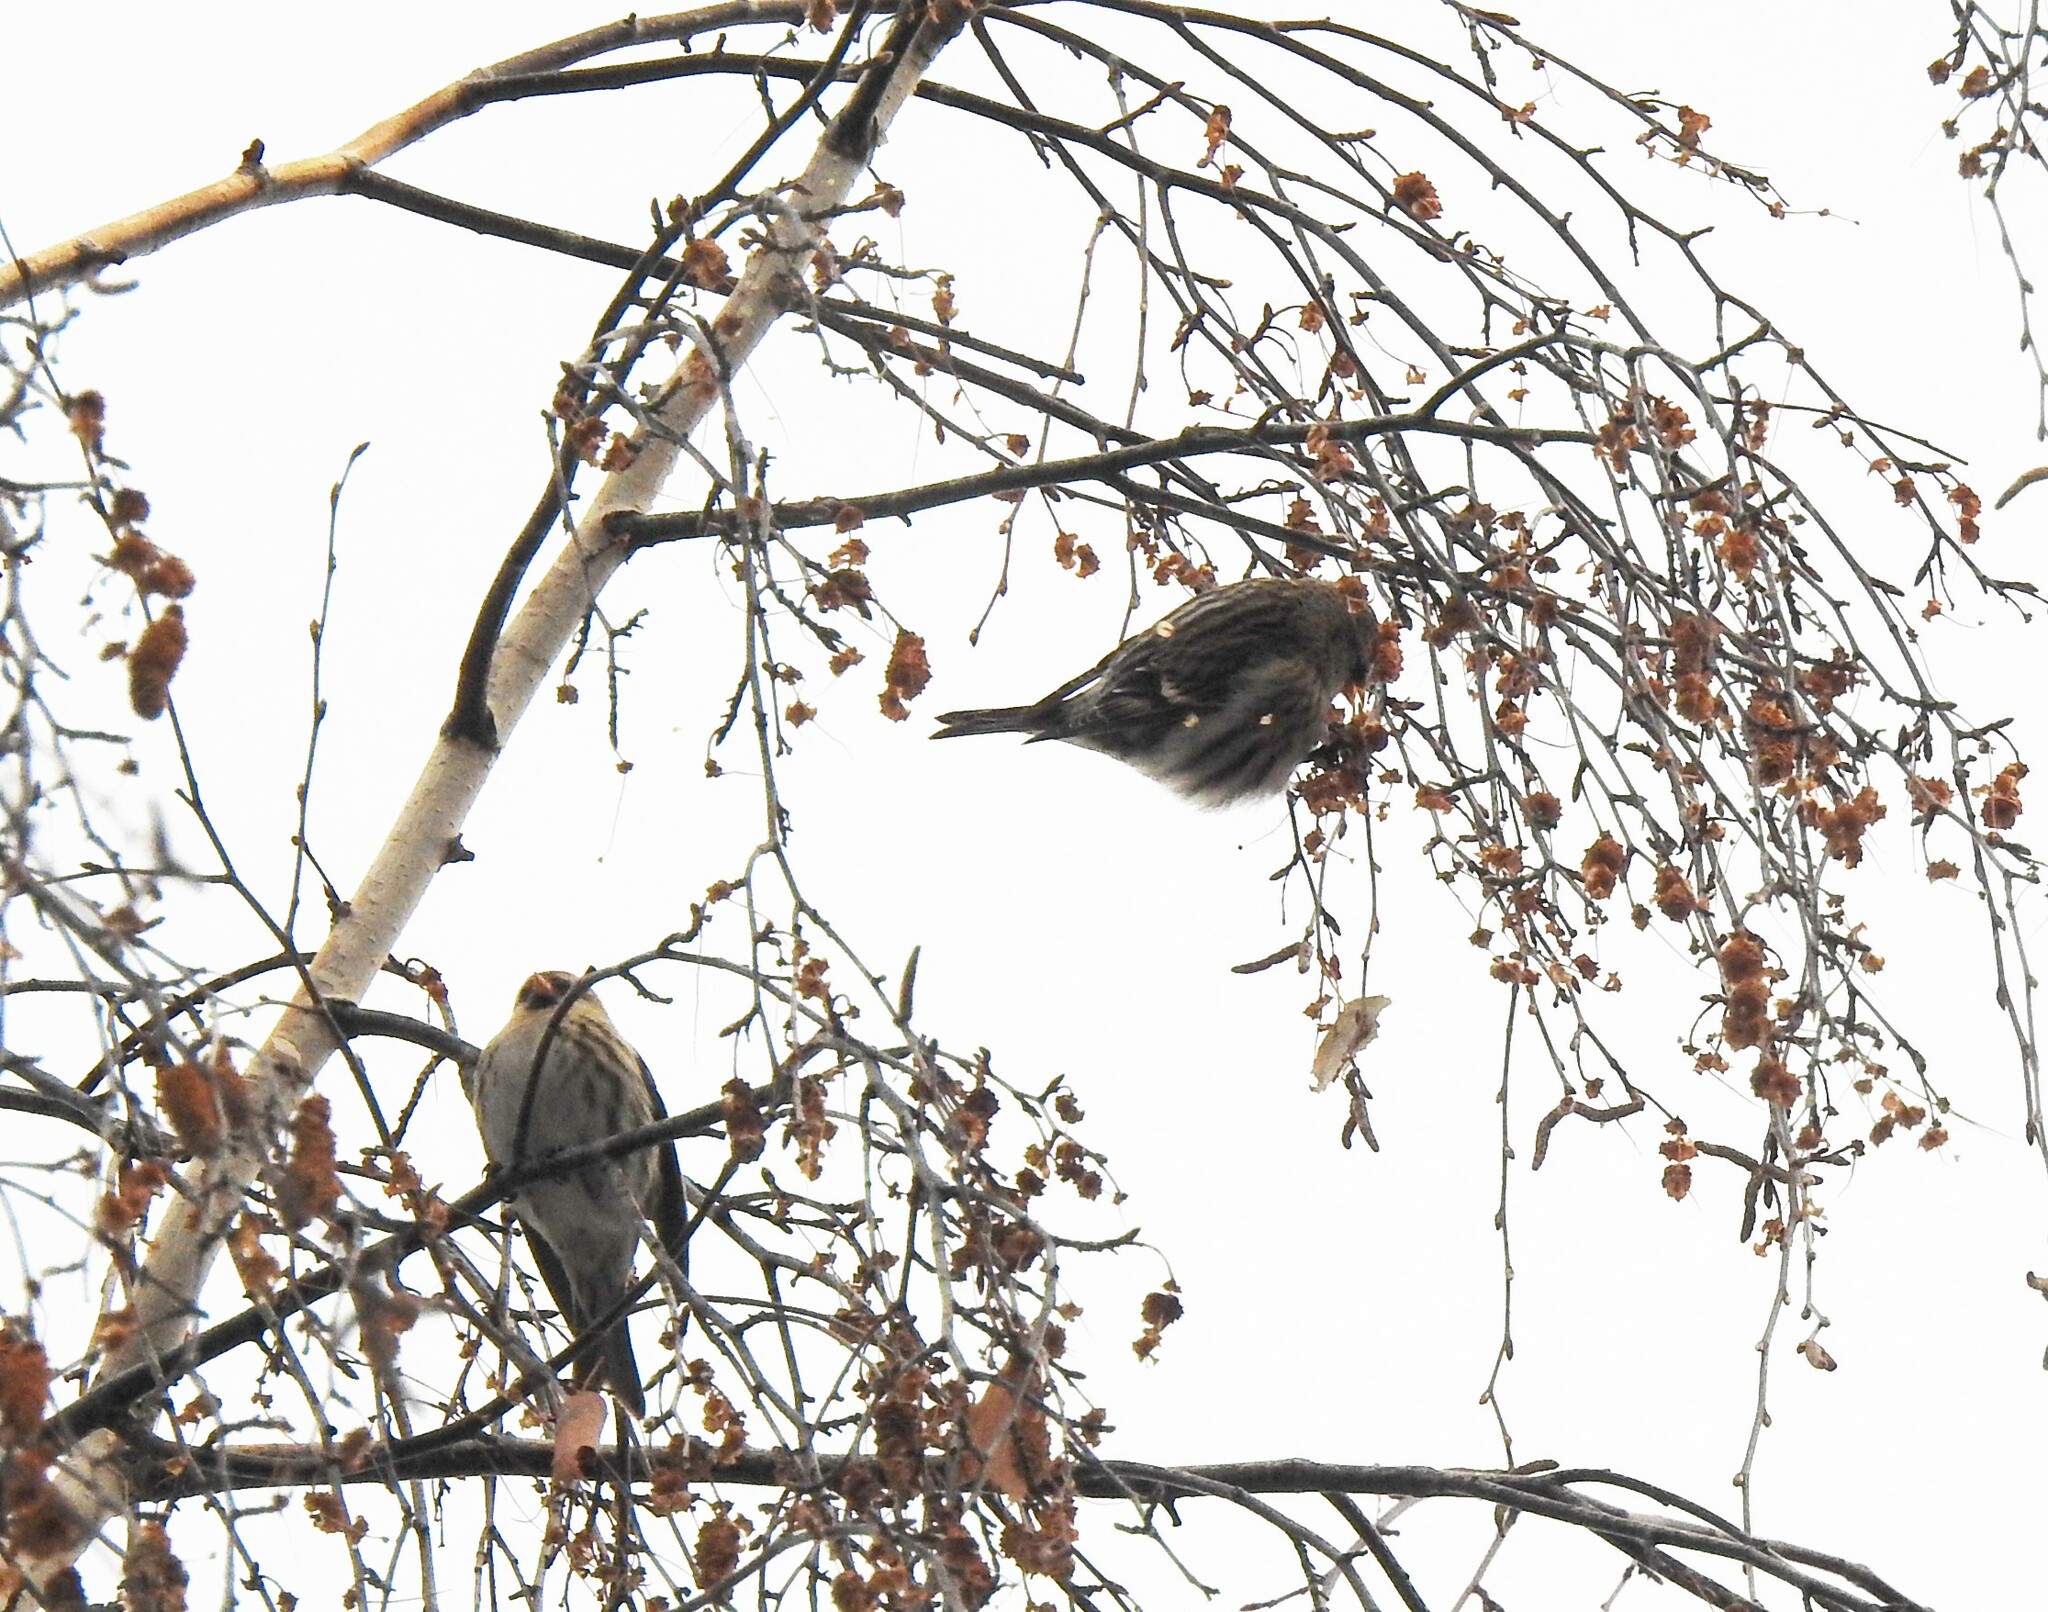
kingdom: Animalia
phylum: Chordata
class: Aves
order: Passeriformes
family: Fringillidae
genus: Acanthis
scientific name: Acanthis flammea
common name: Common redpoll
